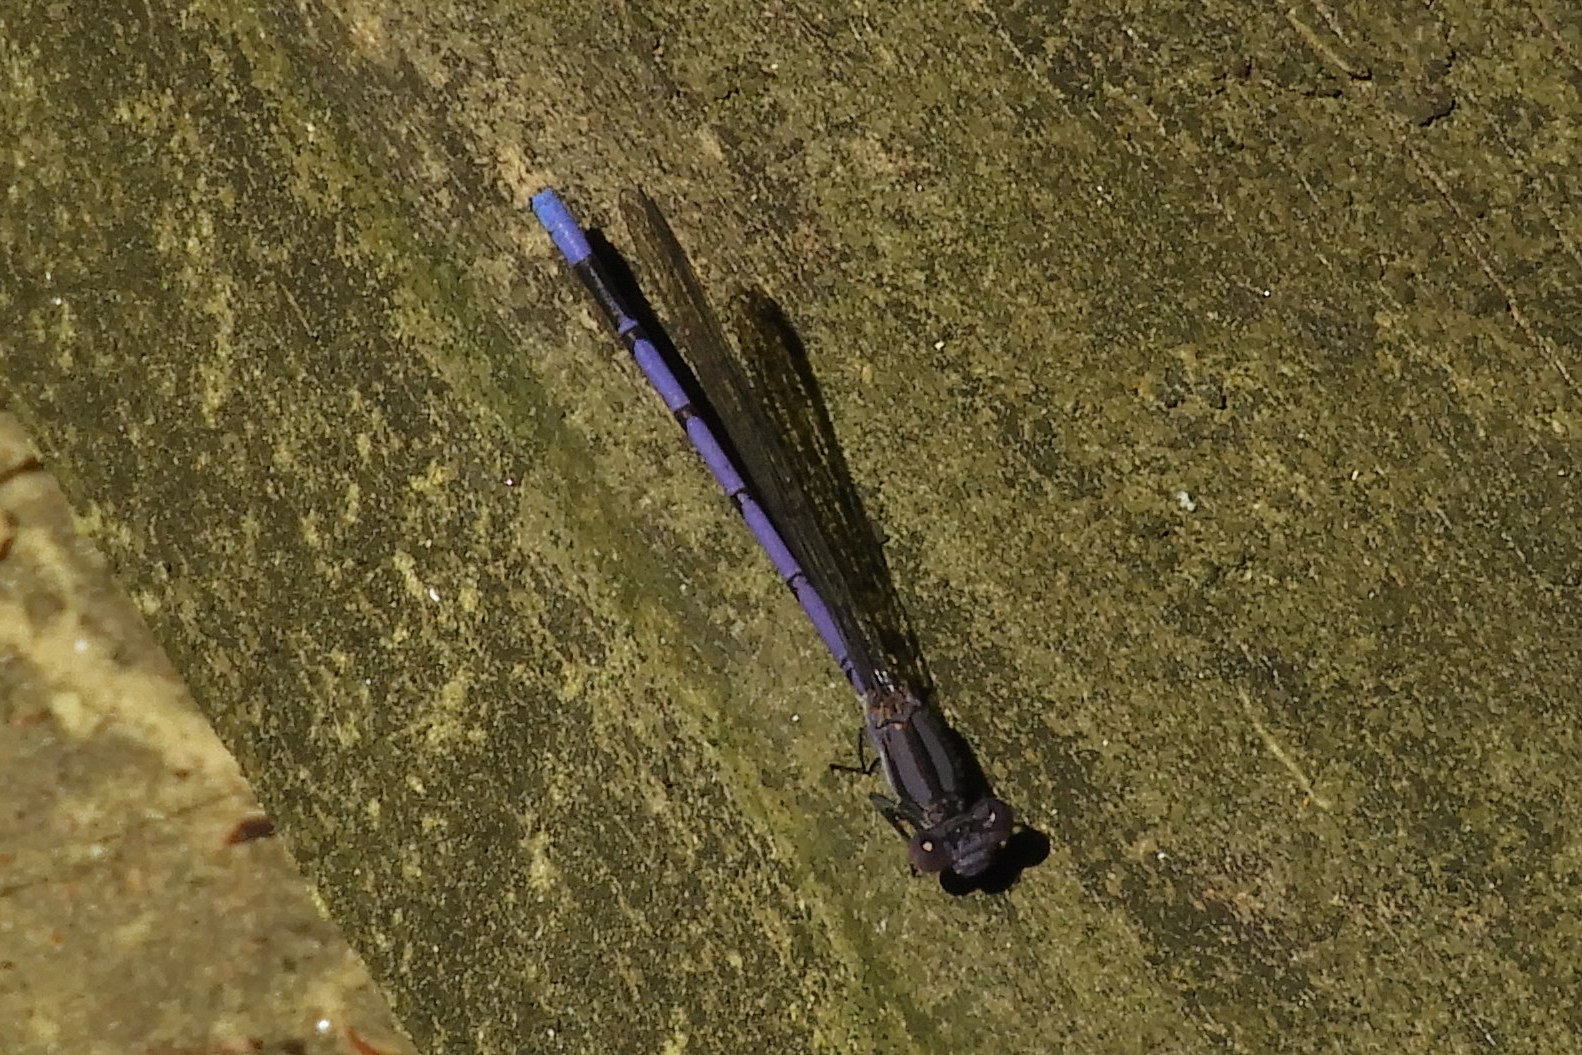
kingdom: Animalia
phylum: Arthropoda
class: Insecta
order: Odonata
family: Coenagrionidae
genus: Argia
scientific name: Argia fumipennis
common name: Variable dancer
